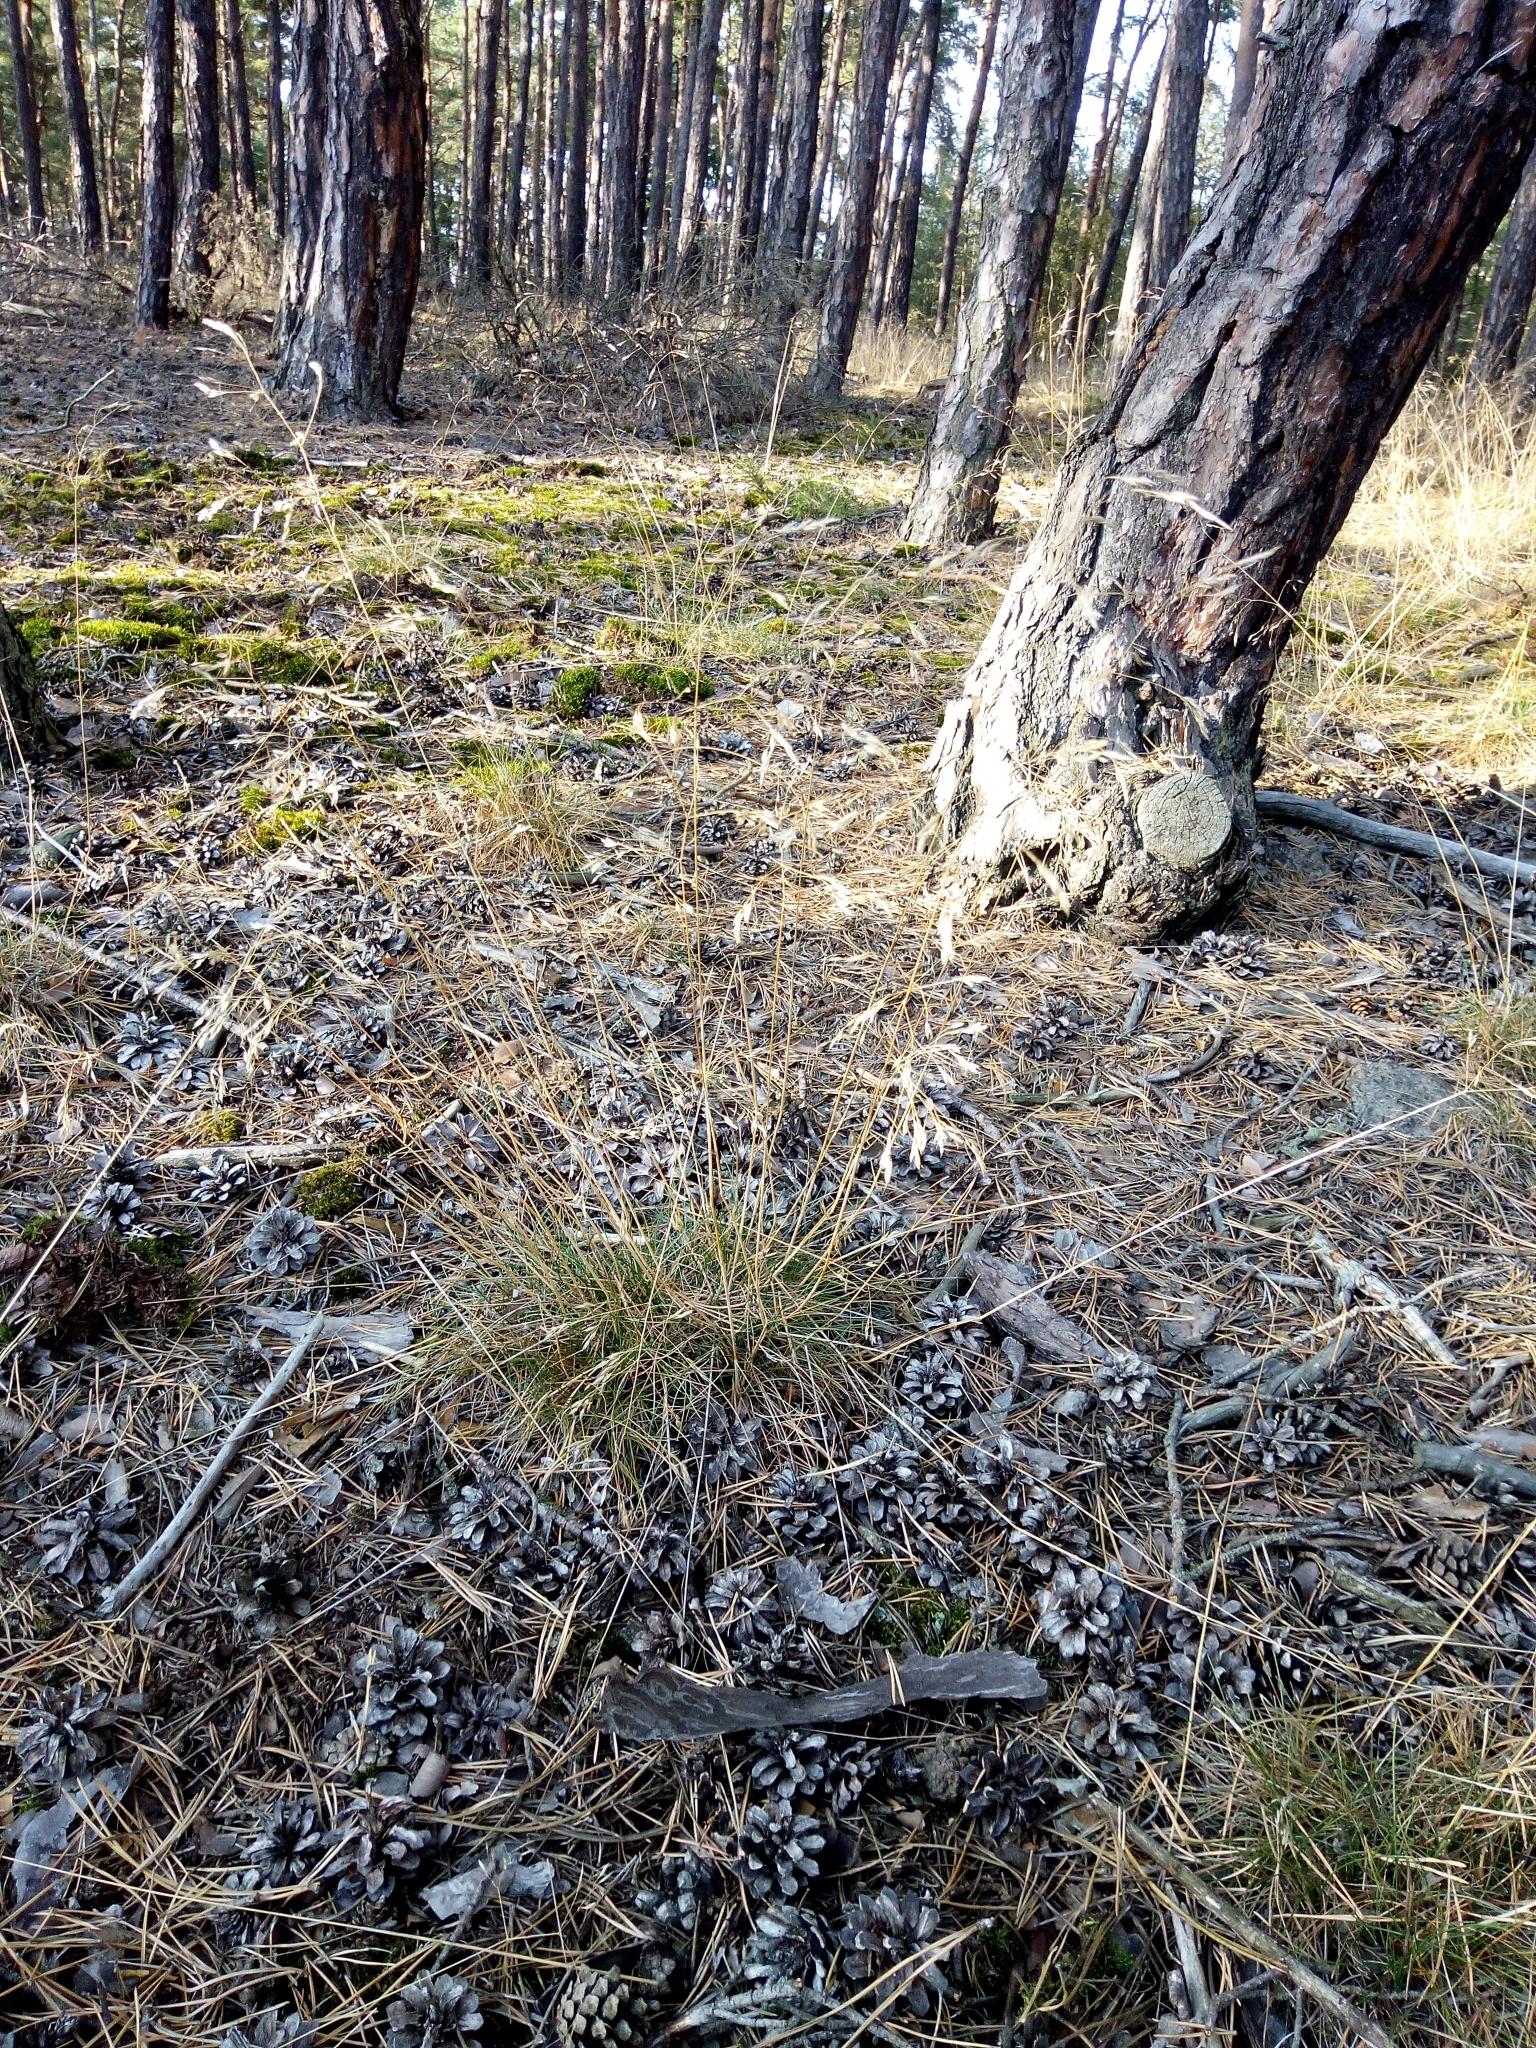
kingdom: Plantae
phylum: Tracheophyta
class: Liliopsida
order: Poales
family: Poaceae
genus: Avenella
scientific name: Avenella flexuosa
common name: Wavy hairgrass
